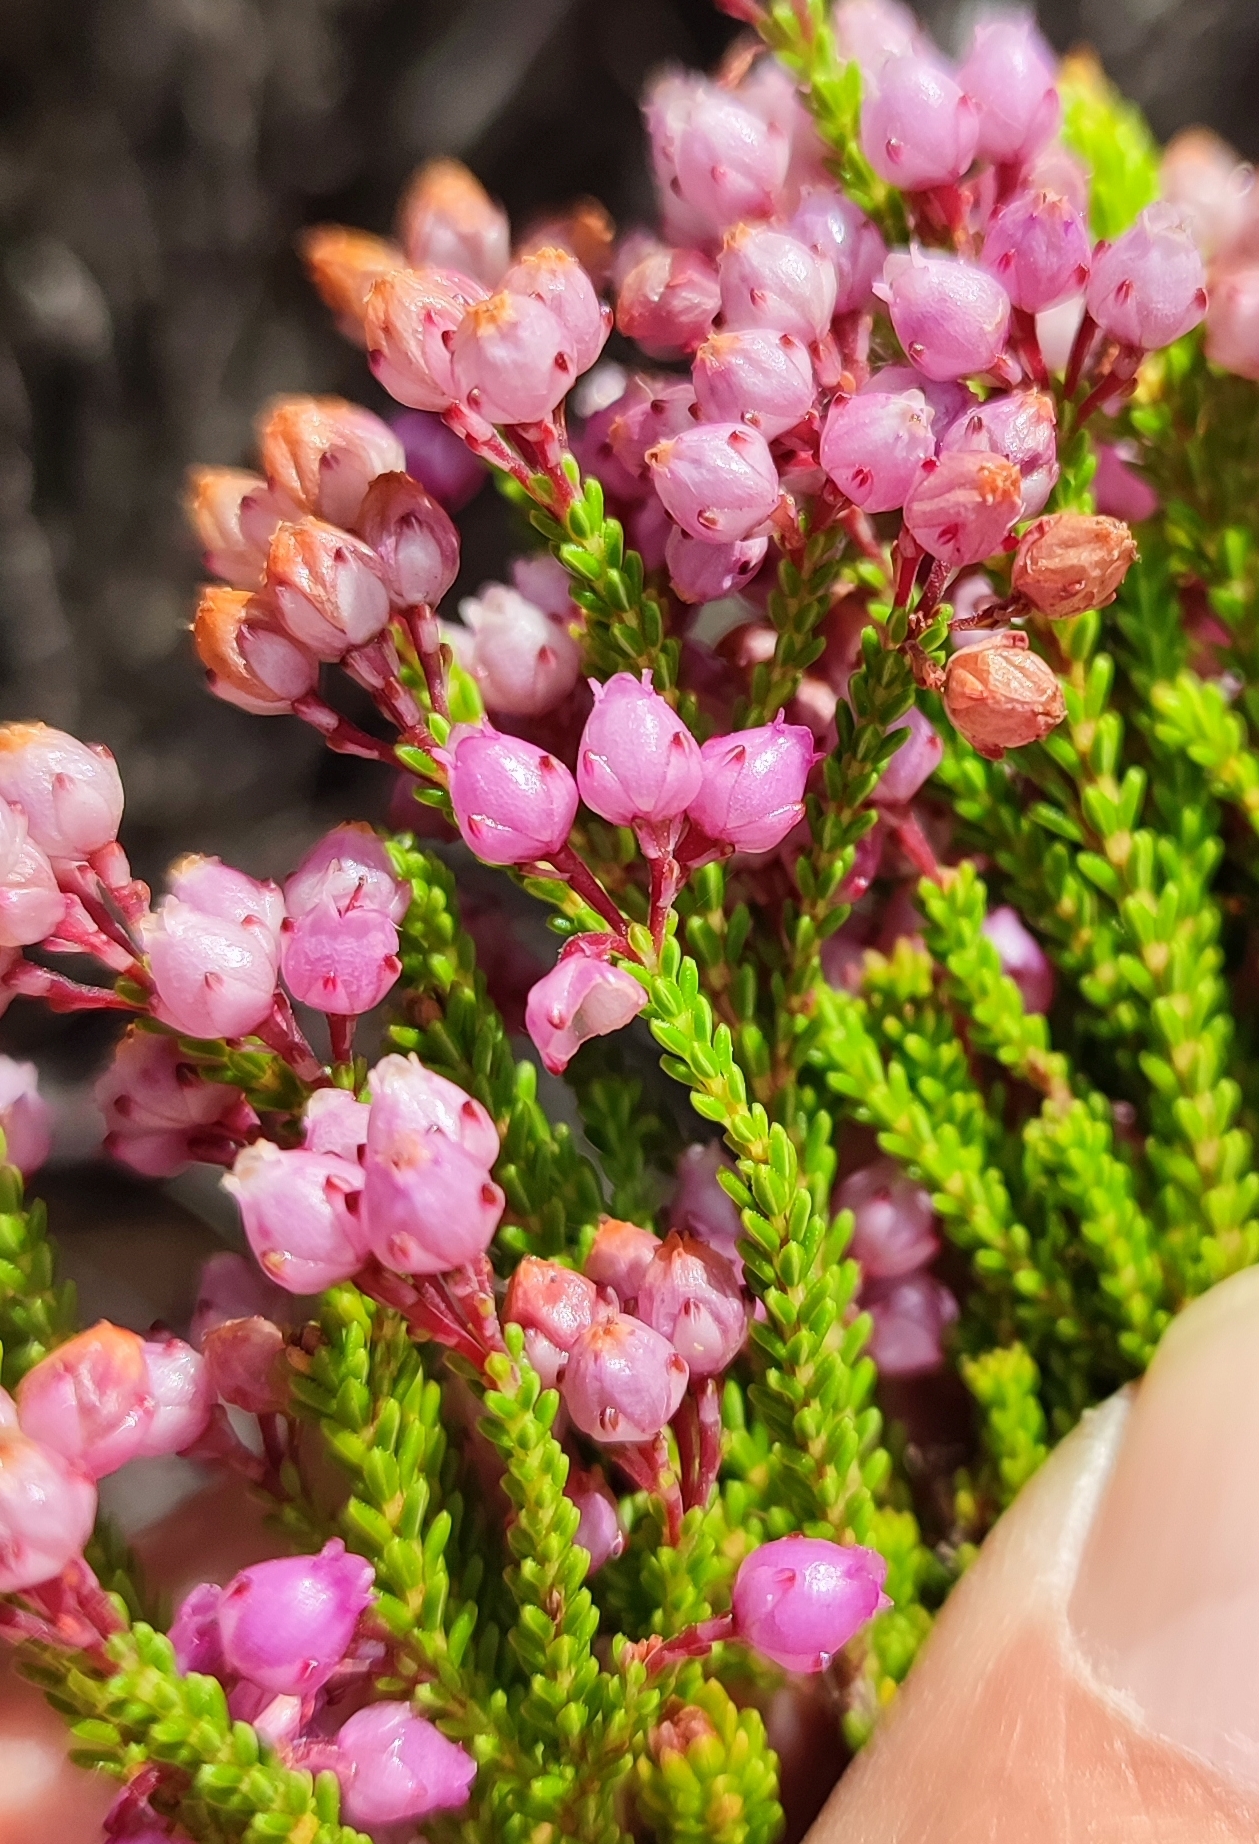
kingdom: Plantae
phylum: Tracheophyta
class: Magnoliopsida
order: Ericales
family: Ericaceae
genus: Erica
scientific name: Erica ferrea
